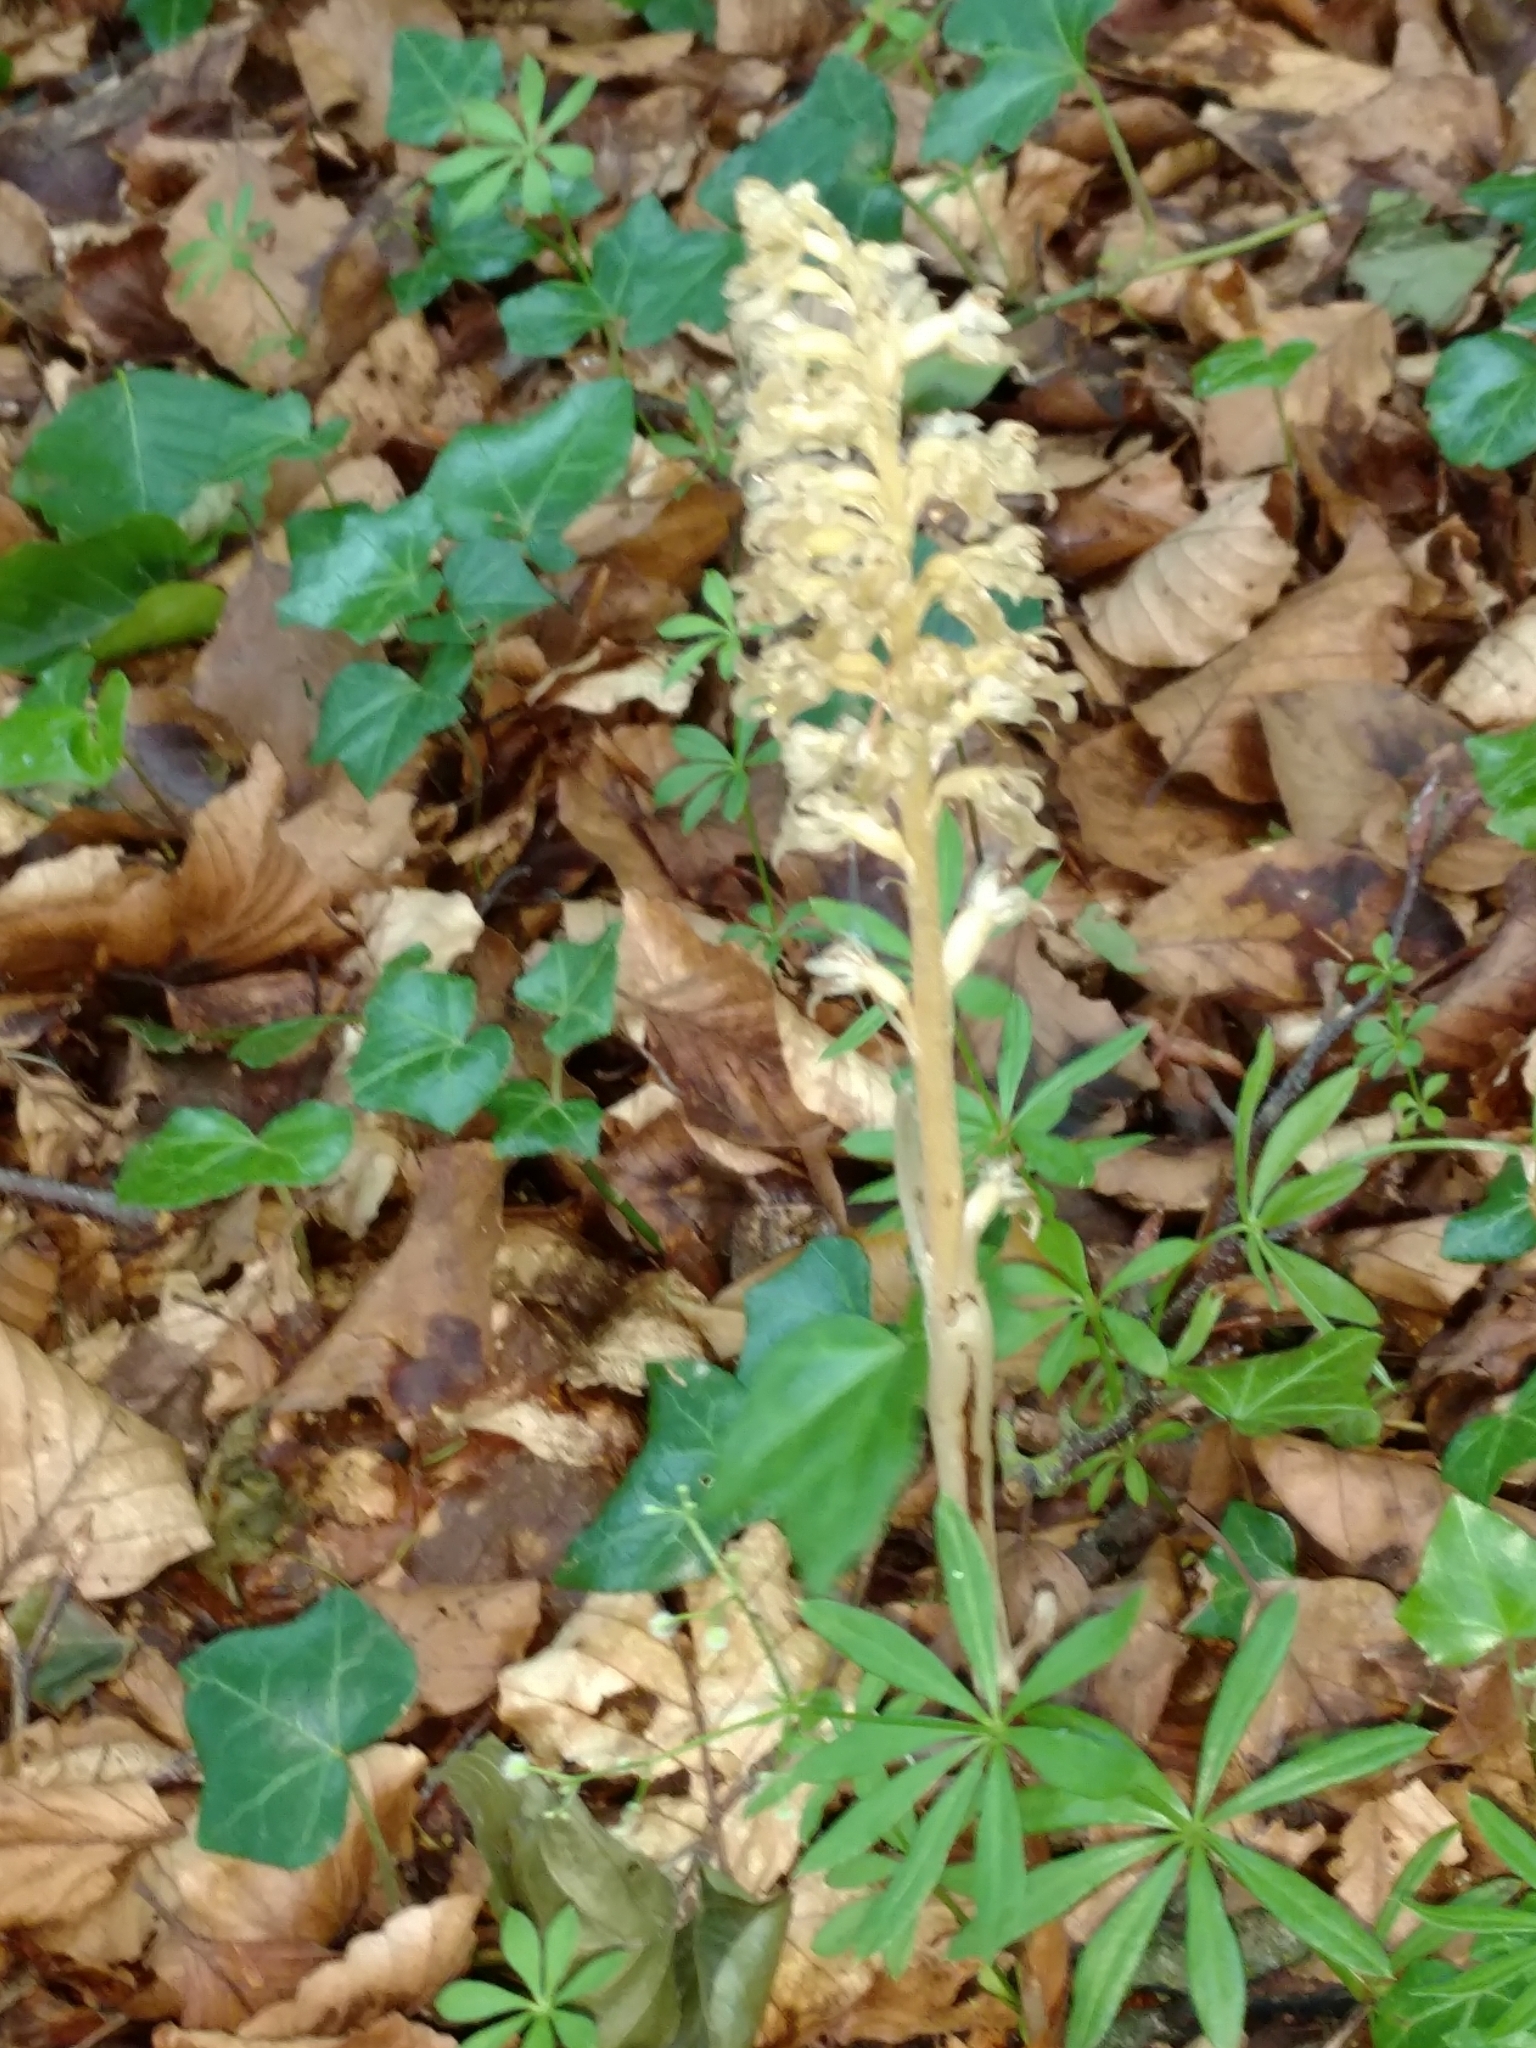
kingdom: Plantae
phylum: Tracheophyta
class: Liliopsida
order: Asparagales
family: Orchidaceae
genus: Neottia
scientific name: Neottia nidus-avis
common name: Bird's-nest orchid
